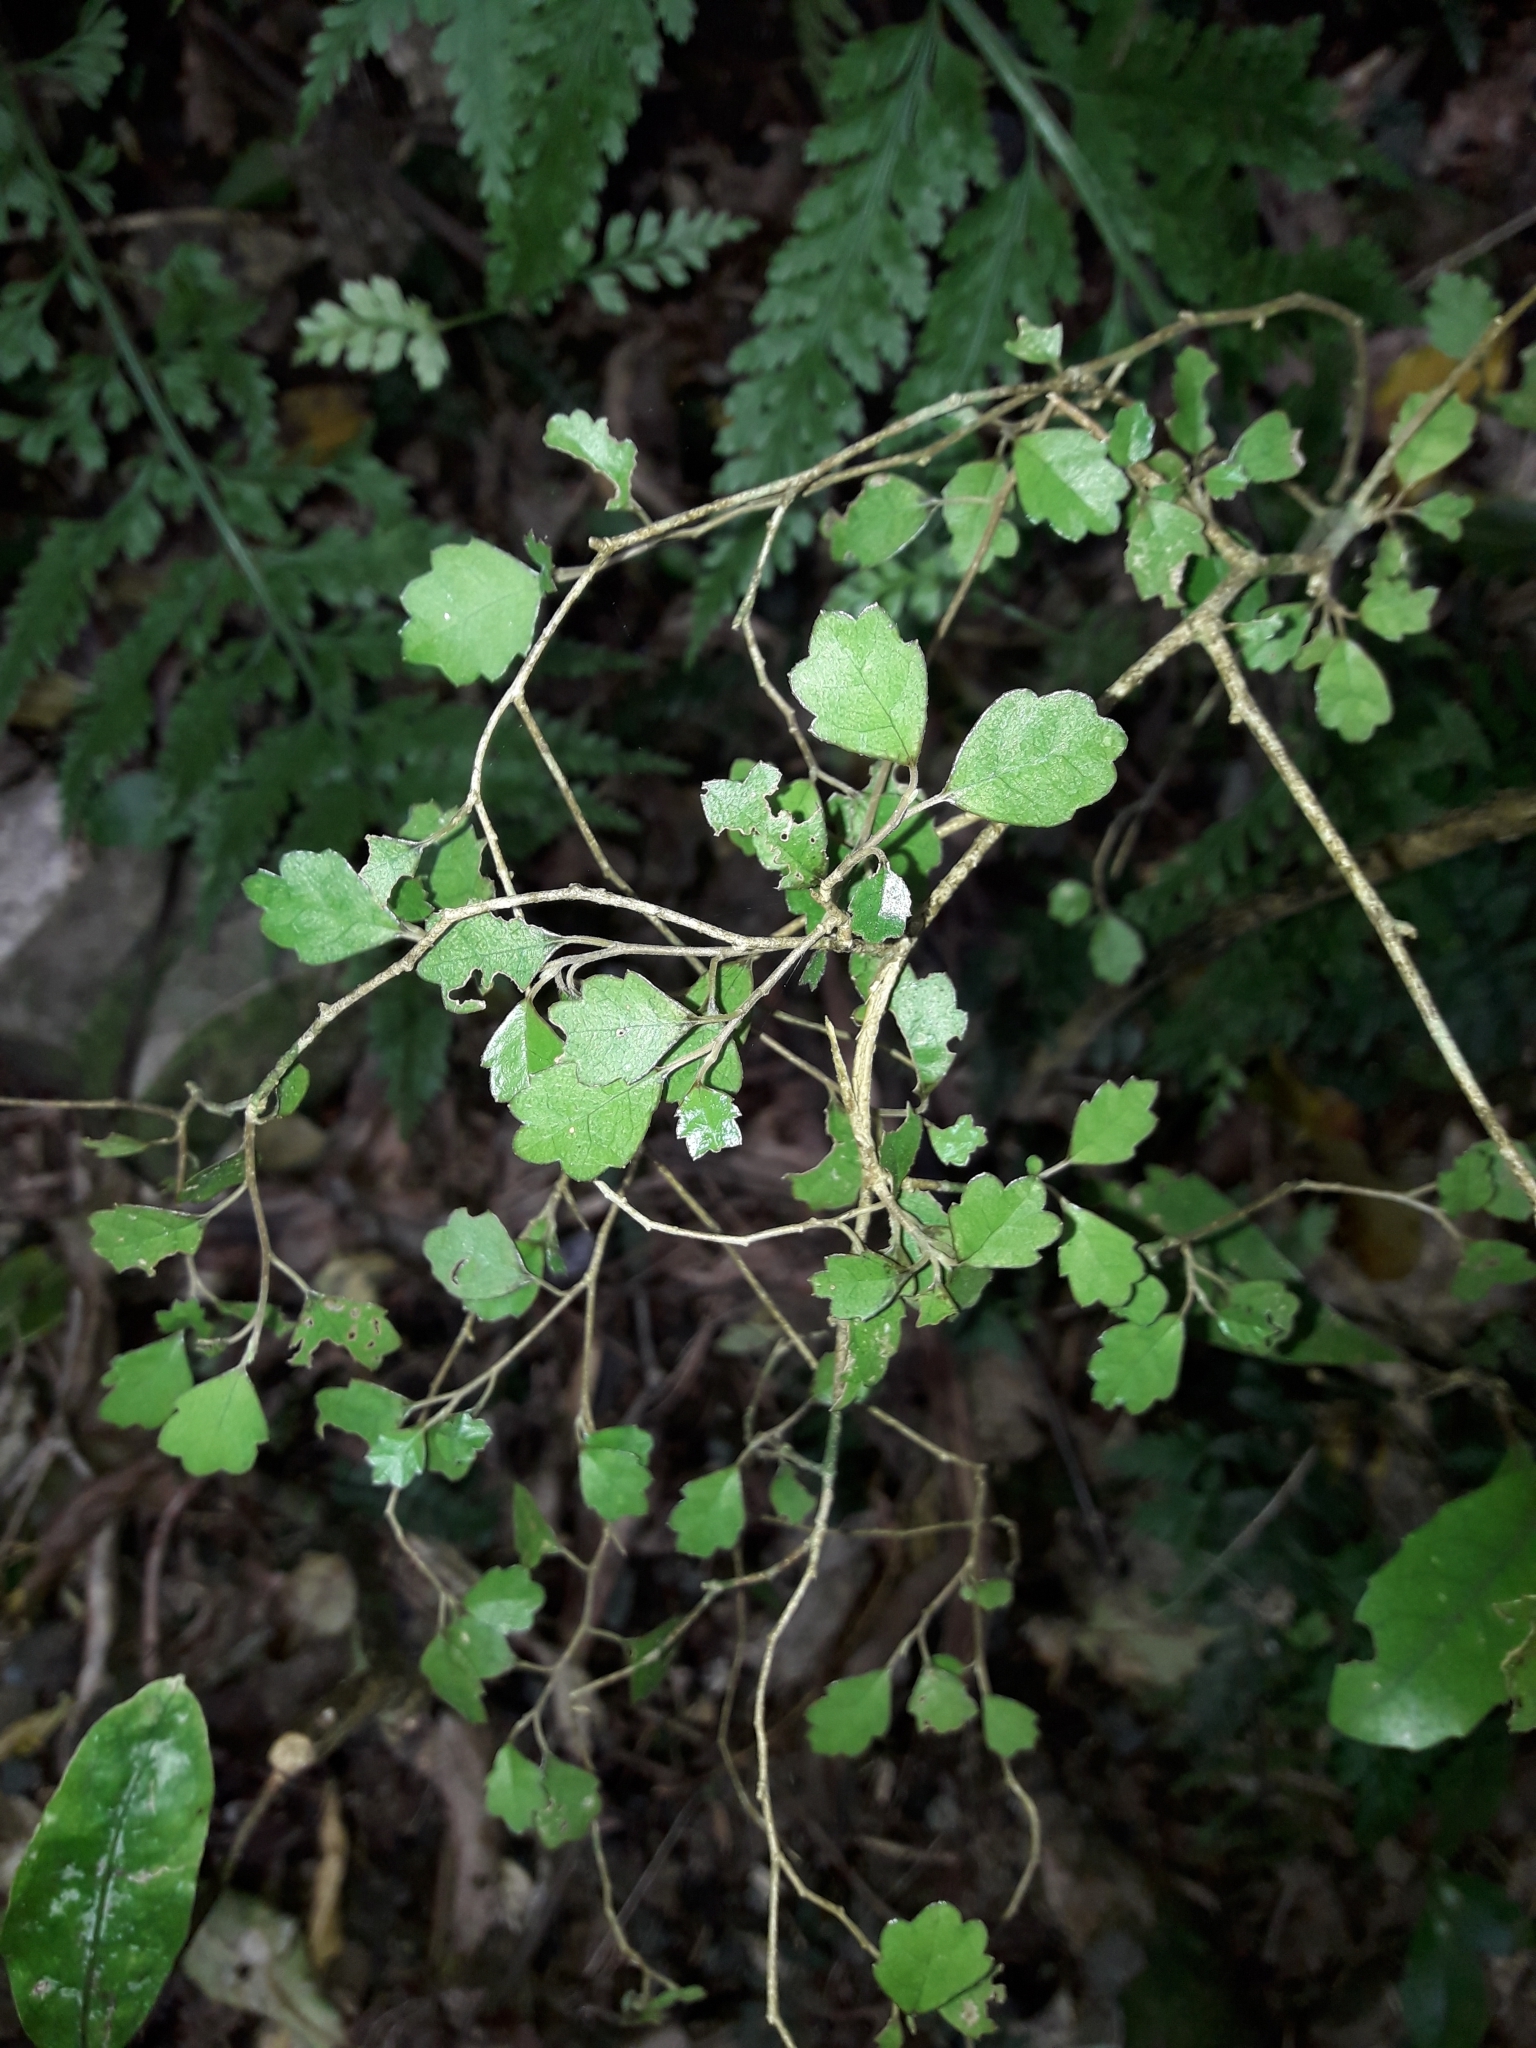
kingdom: Plantae
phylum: Tracheophyta
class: Magnoliopsida
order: Apiales
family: Pennantiaceae
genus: Pennantia
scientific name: Pennantia corymbosa
